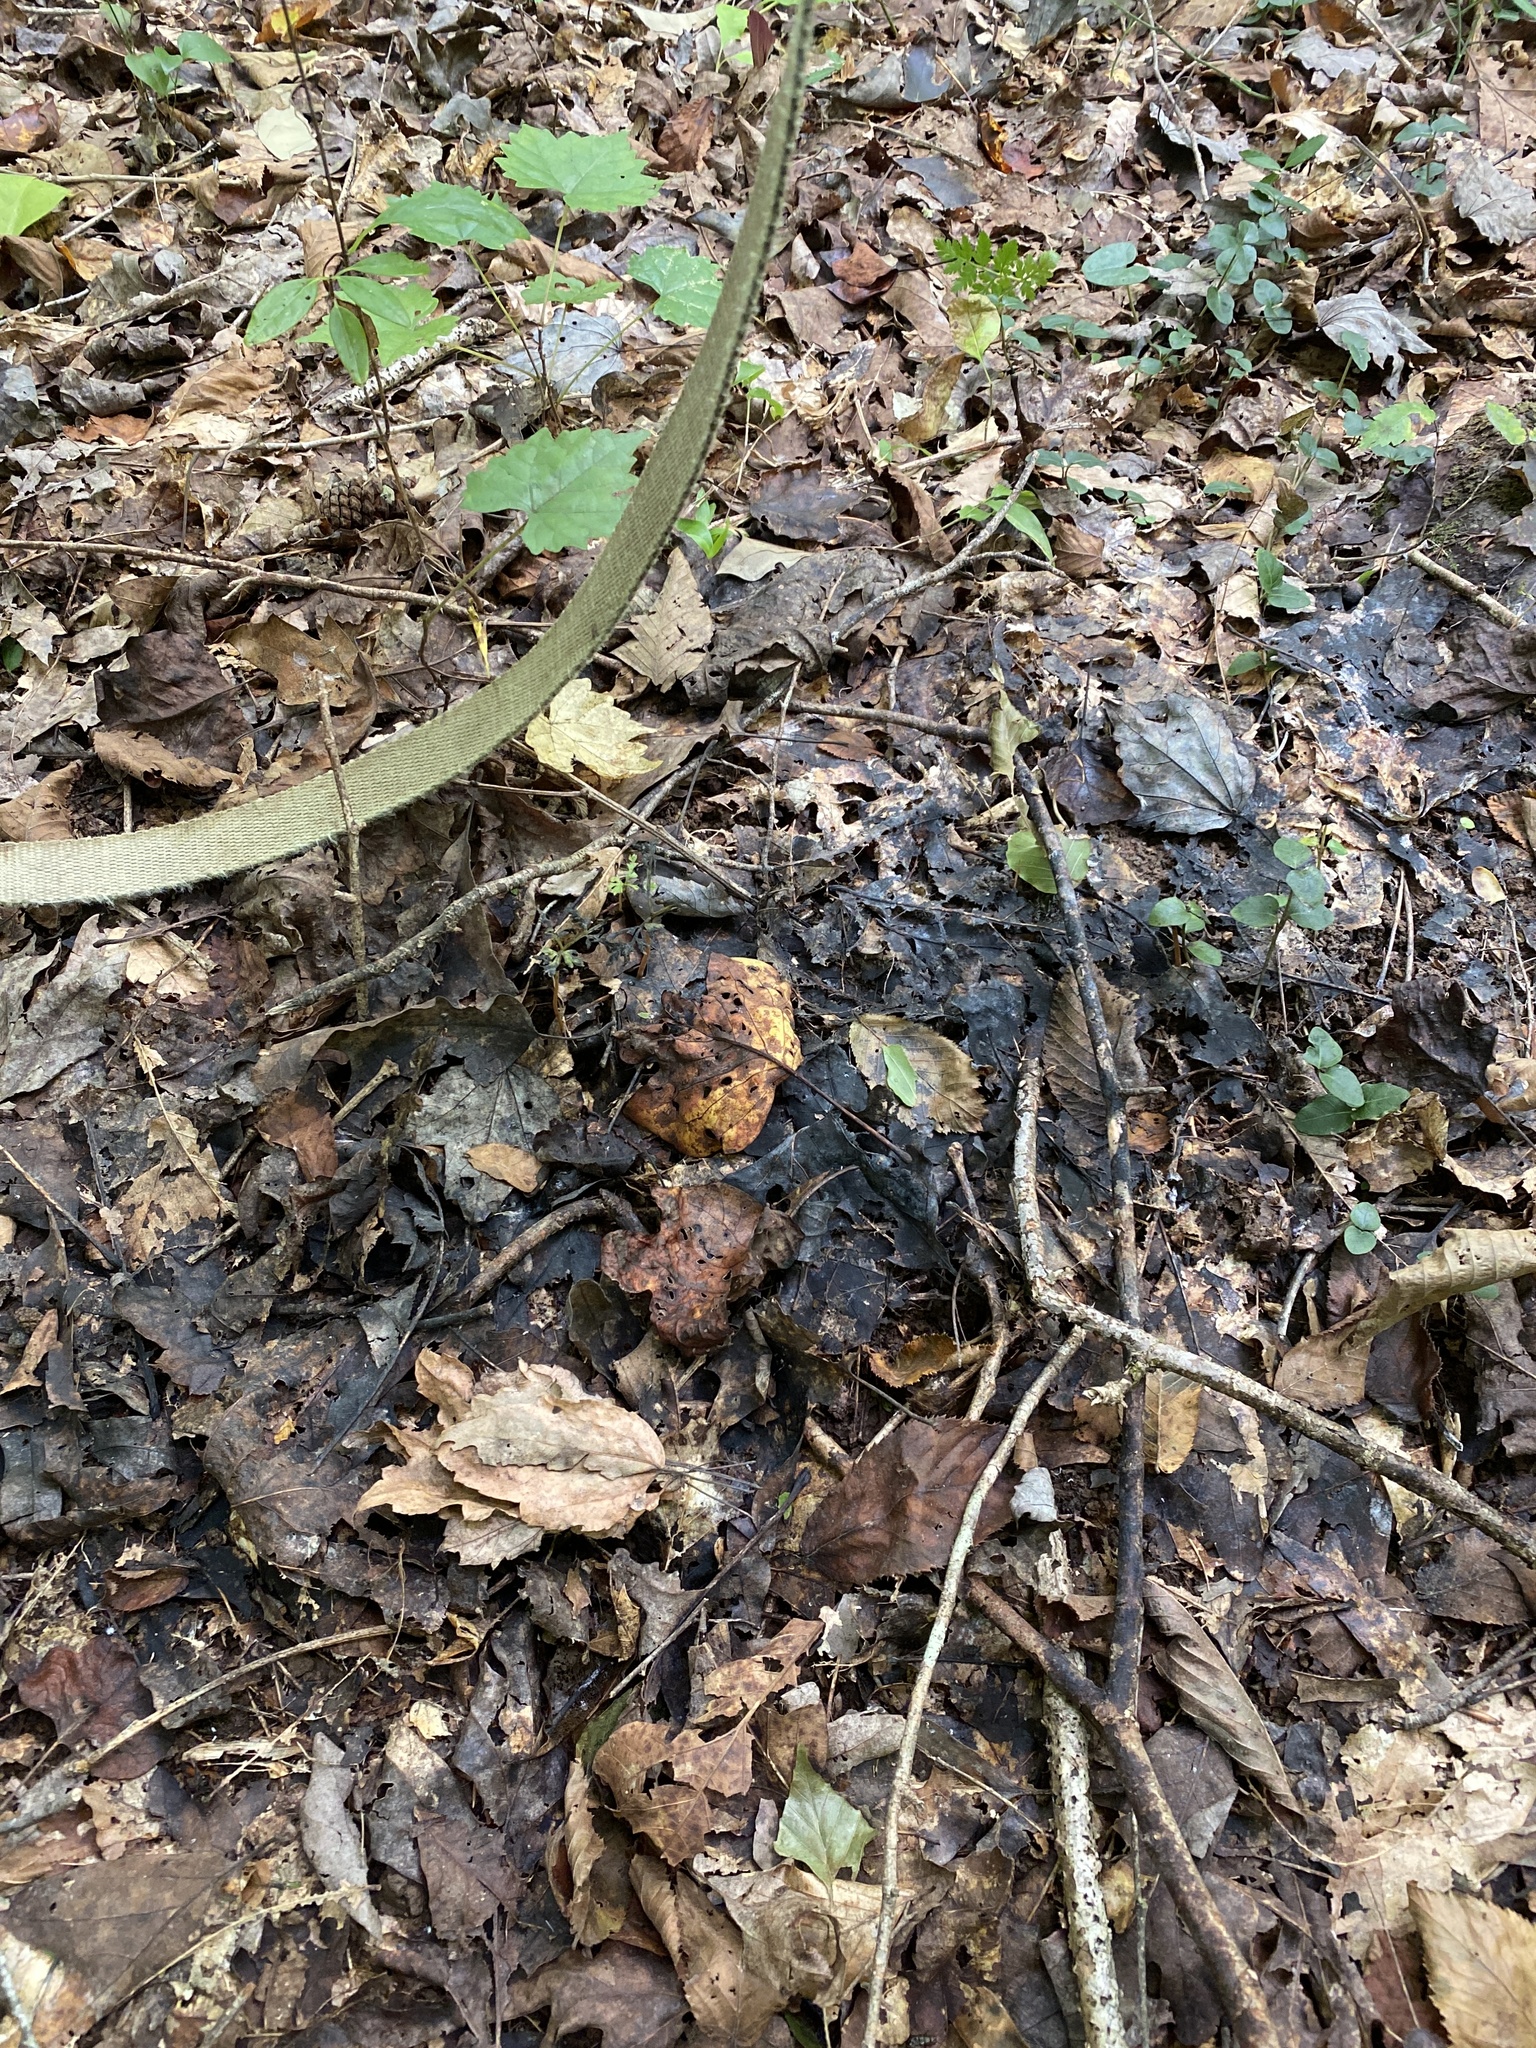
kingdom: Animalia
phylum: Arthropoda
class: Insecta
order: Hemiptera
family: Aphididae
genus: Grylloprociphilus
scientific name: Grylloprociphilus imbricator
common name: Beech blight aphid
